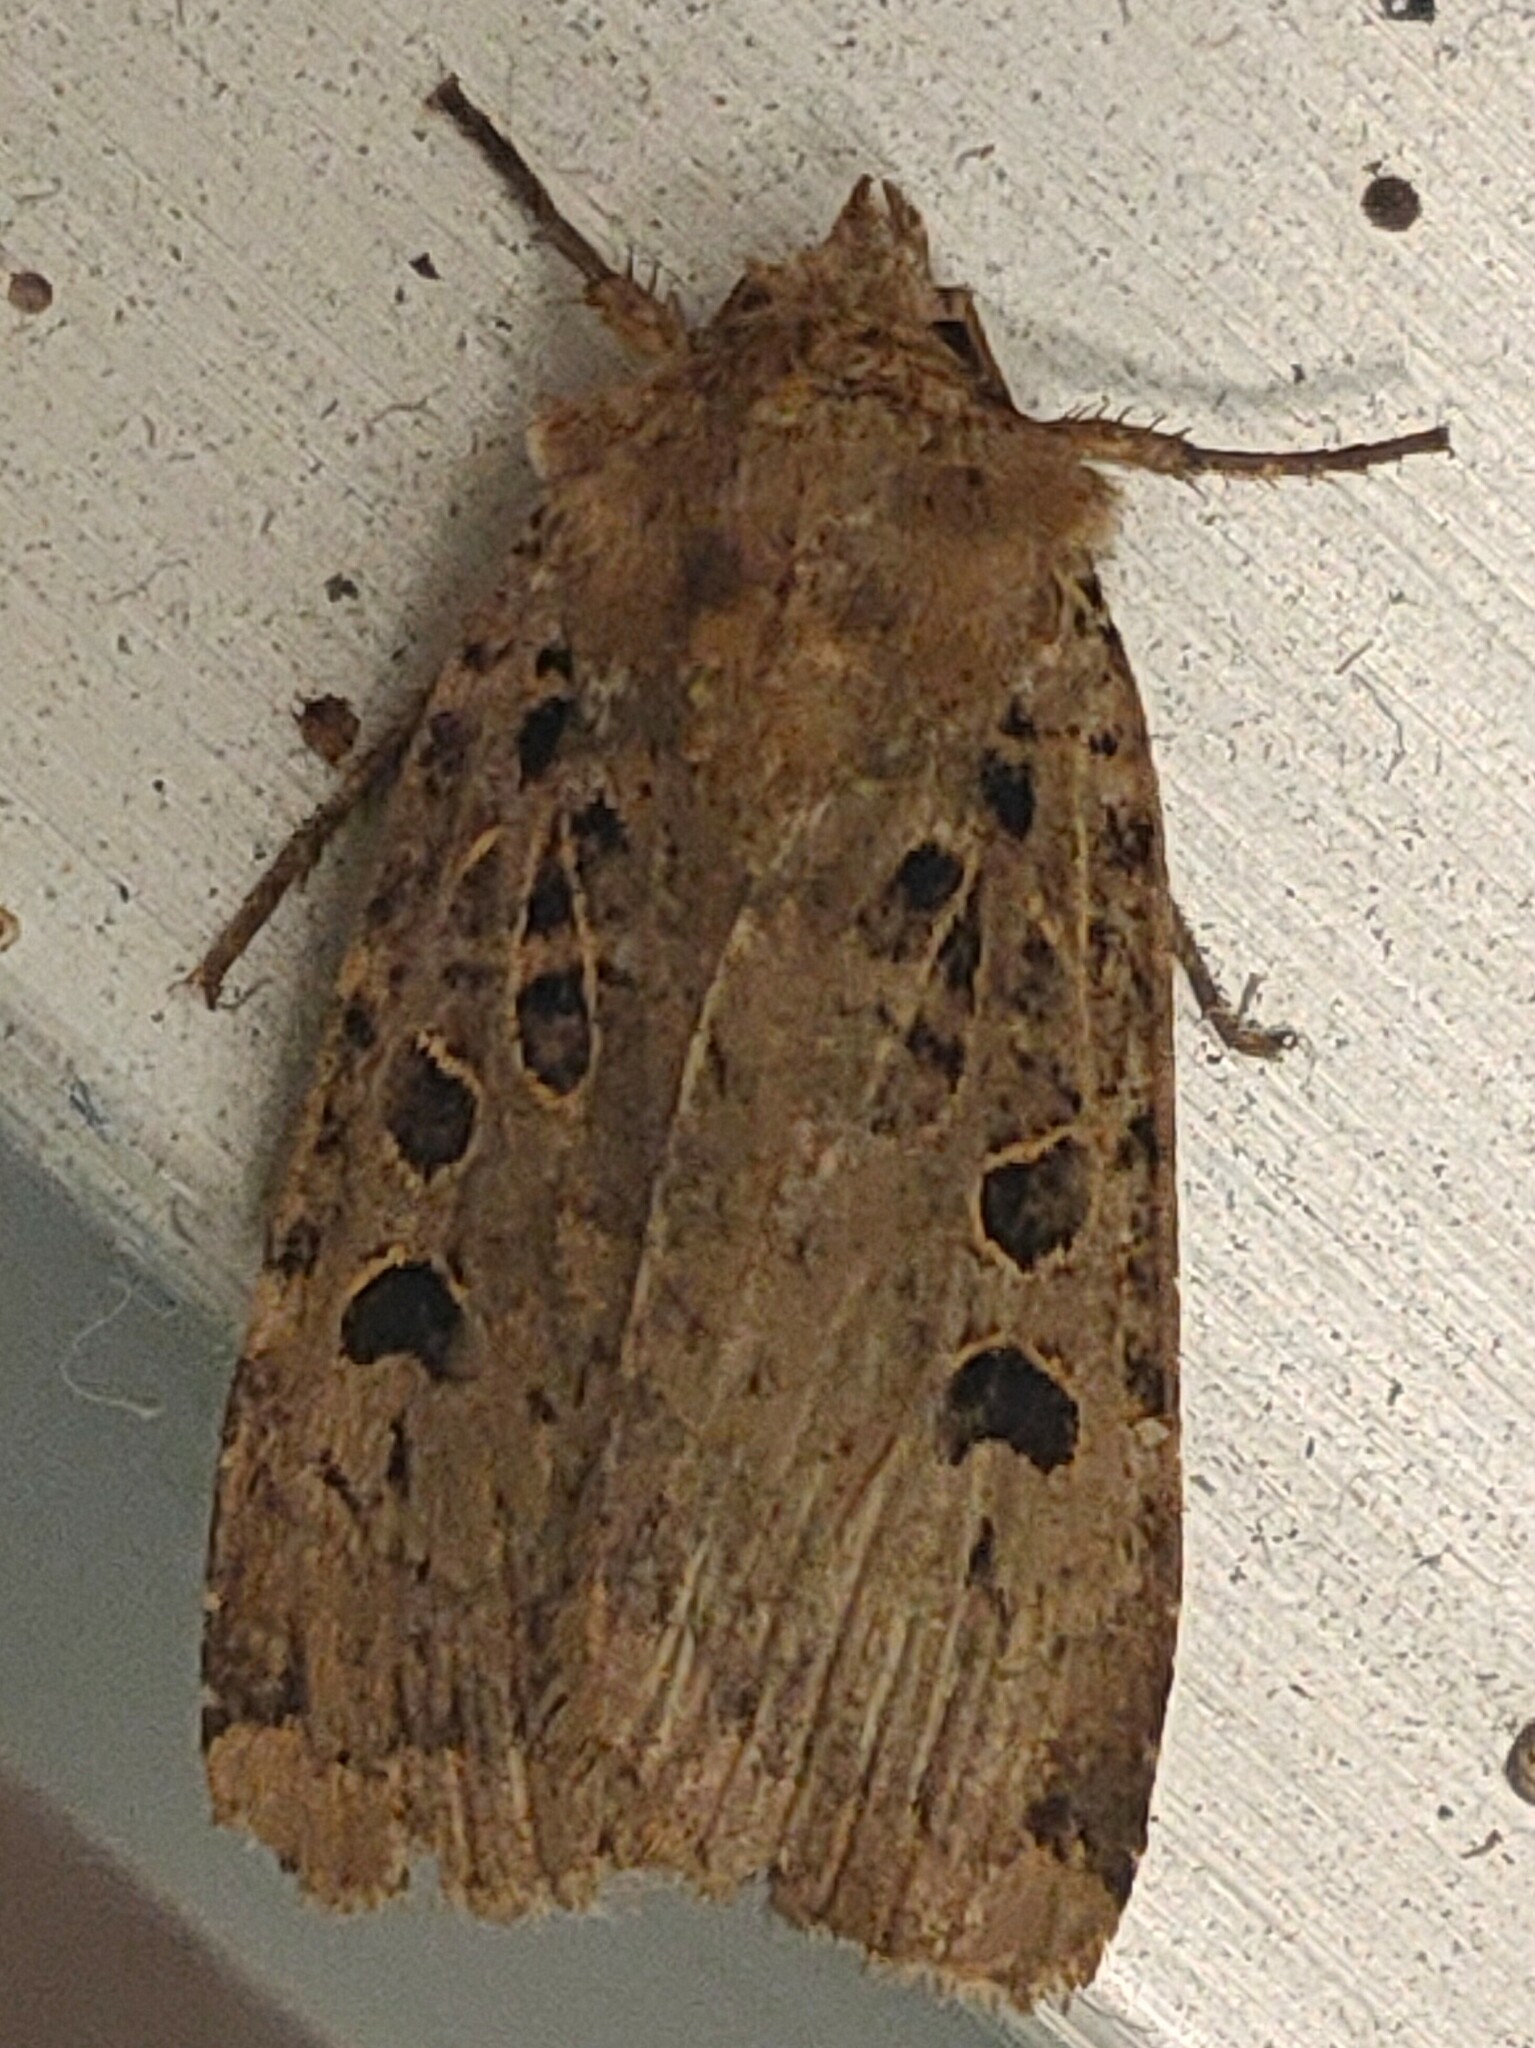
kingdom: Animalia
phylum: Arthropoda
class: Insecta
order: Lepidoptera
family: Noctuidae
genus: Hermonassa
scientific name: Hermonassa cecilia
